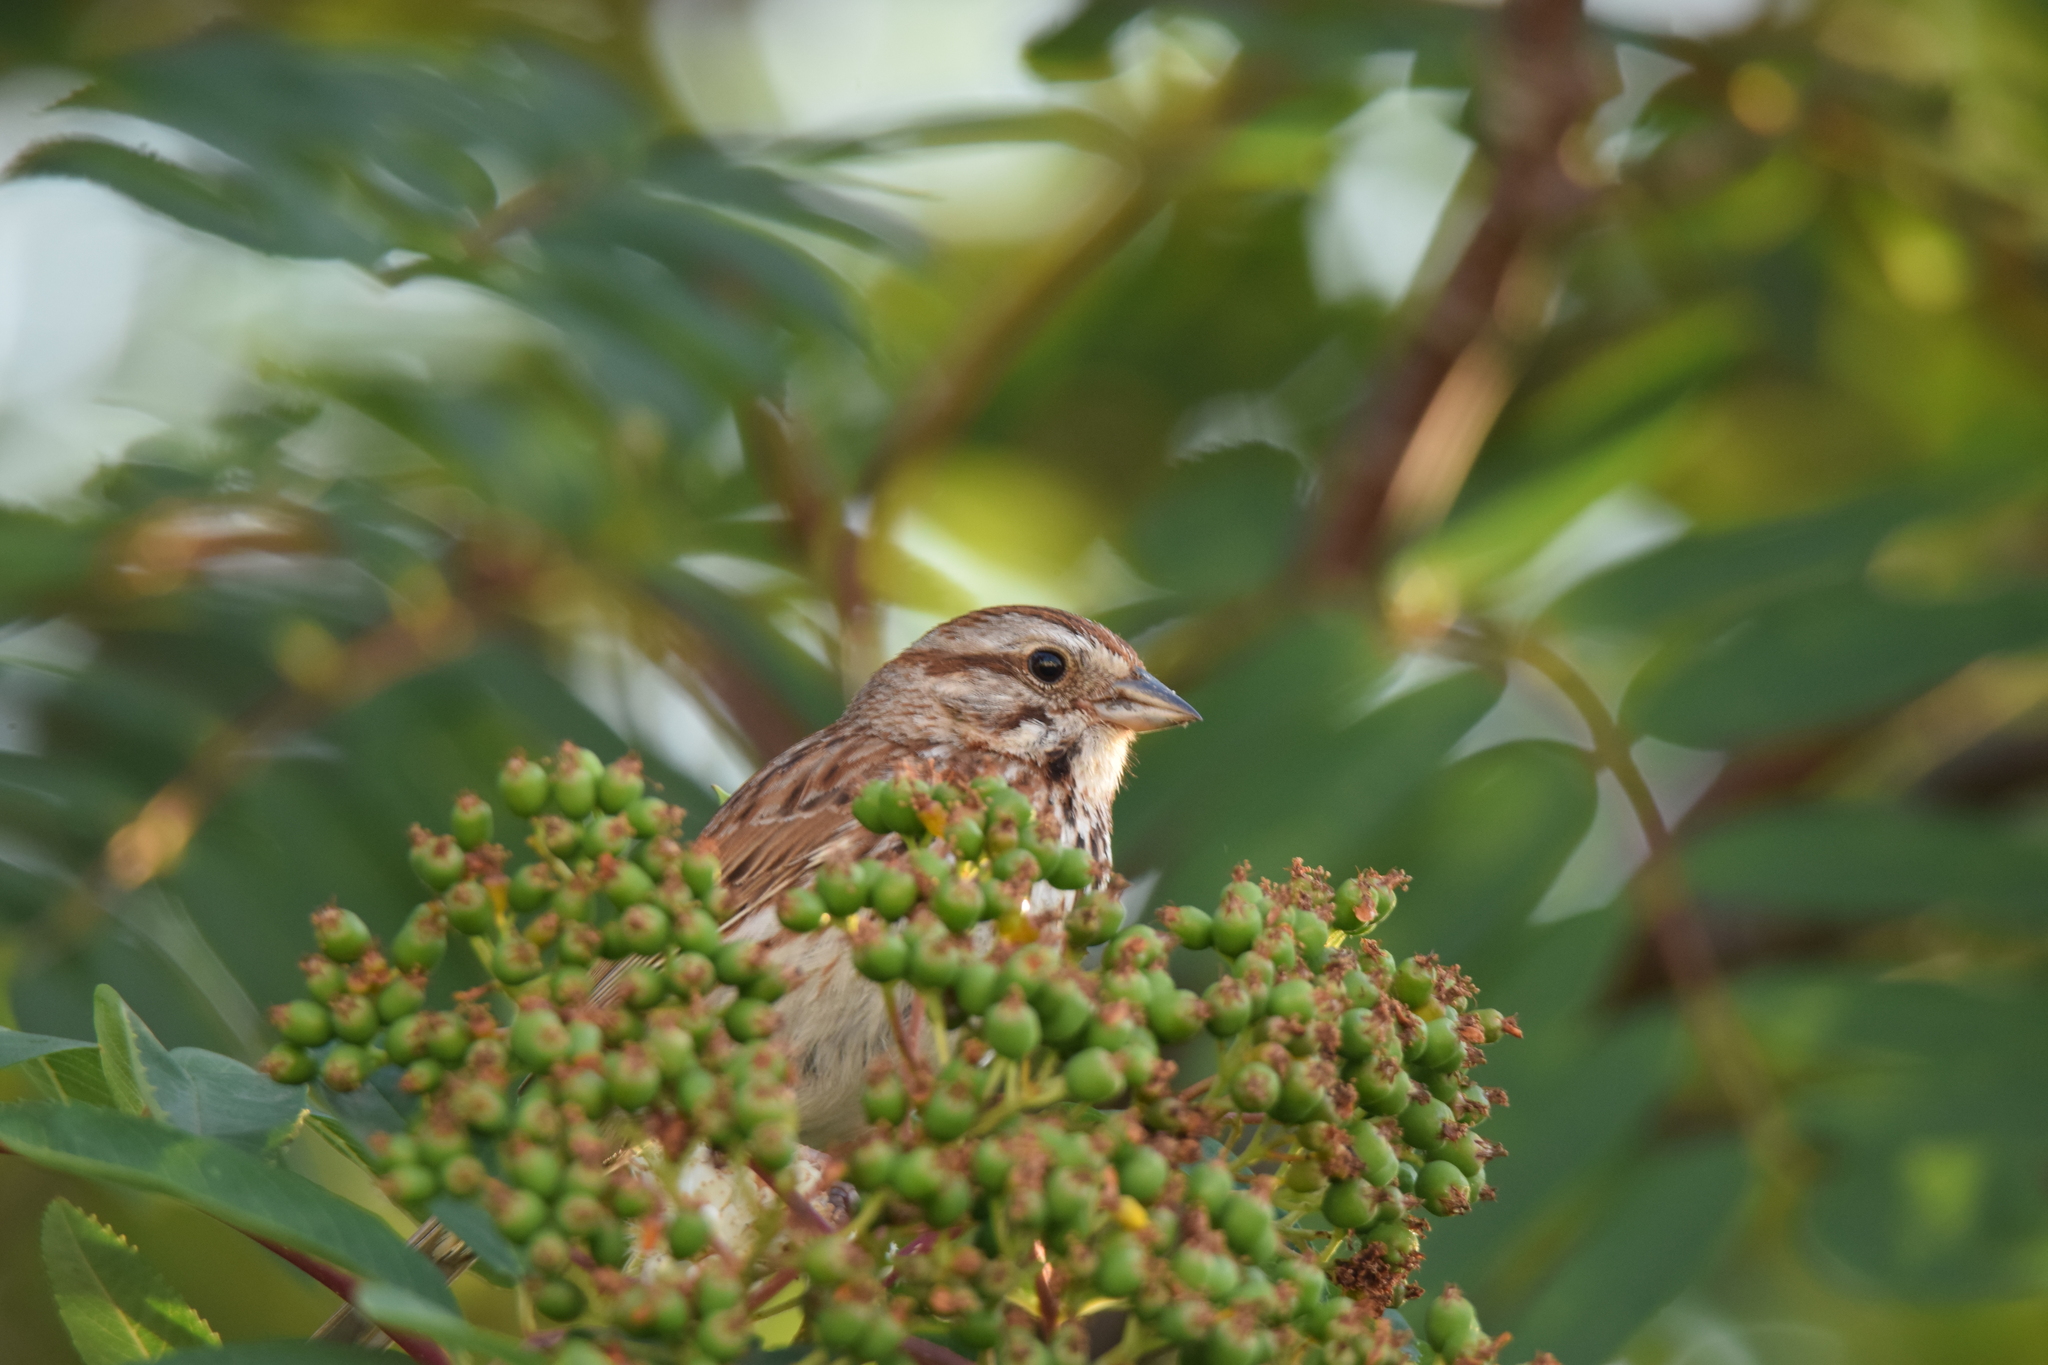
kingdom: Animalia
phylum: Chordata
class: Aves
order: Passeriformes
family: Passerellidae
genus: Melospiza
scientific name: Melospiza melodia
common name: Song sparrow
